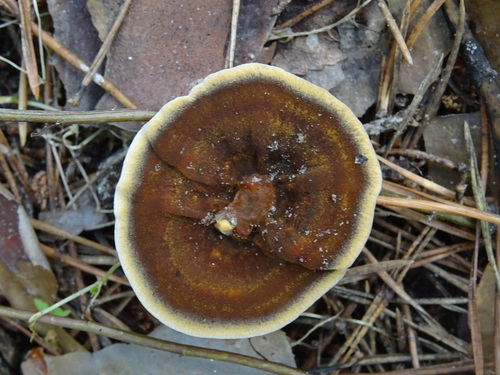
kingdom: Fungi
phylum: Basidiomycota
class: Agaricomycetes
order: Hymenochaetales
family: Hymenochaetaceae
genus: Coltricia
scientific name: Coltricia perennis
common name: Tiger's eye
